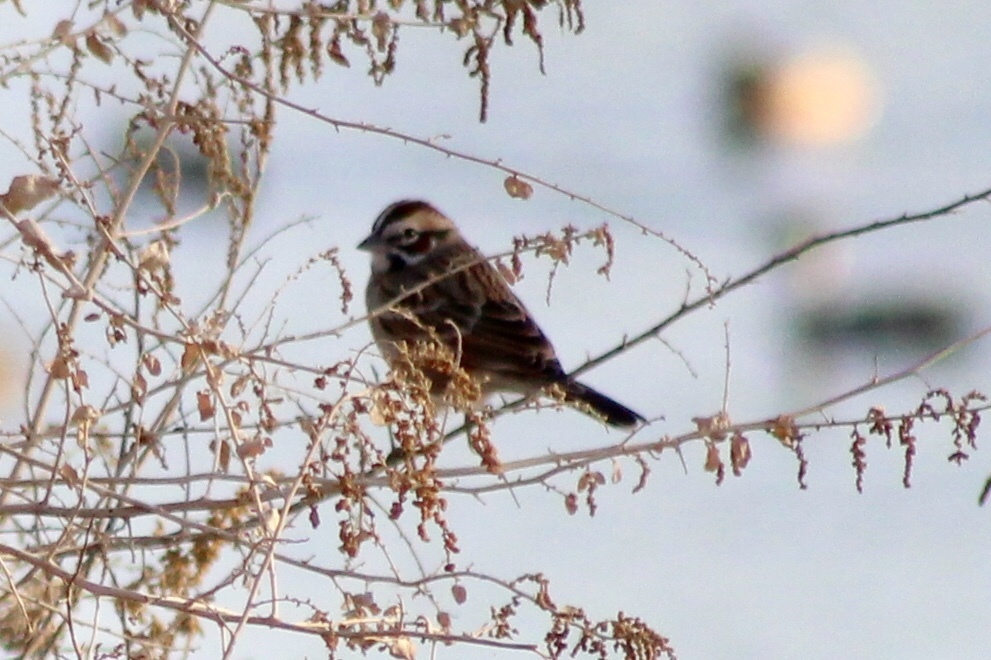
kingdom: Animalia
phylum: Chordata
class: Aves
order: Passeriformes
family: Passerellidae
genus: Chondestes
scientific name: Chondestes grammacus
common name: Lark sparrow
